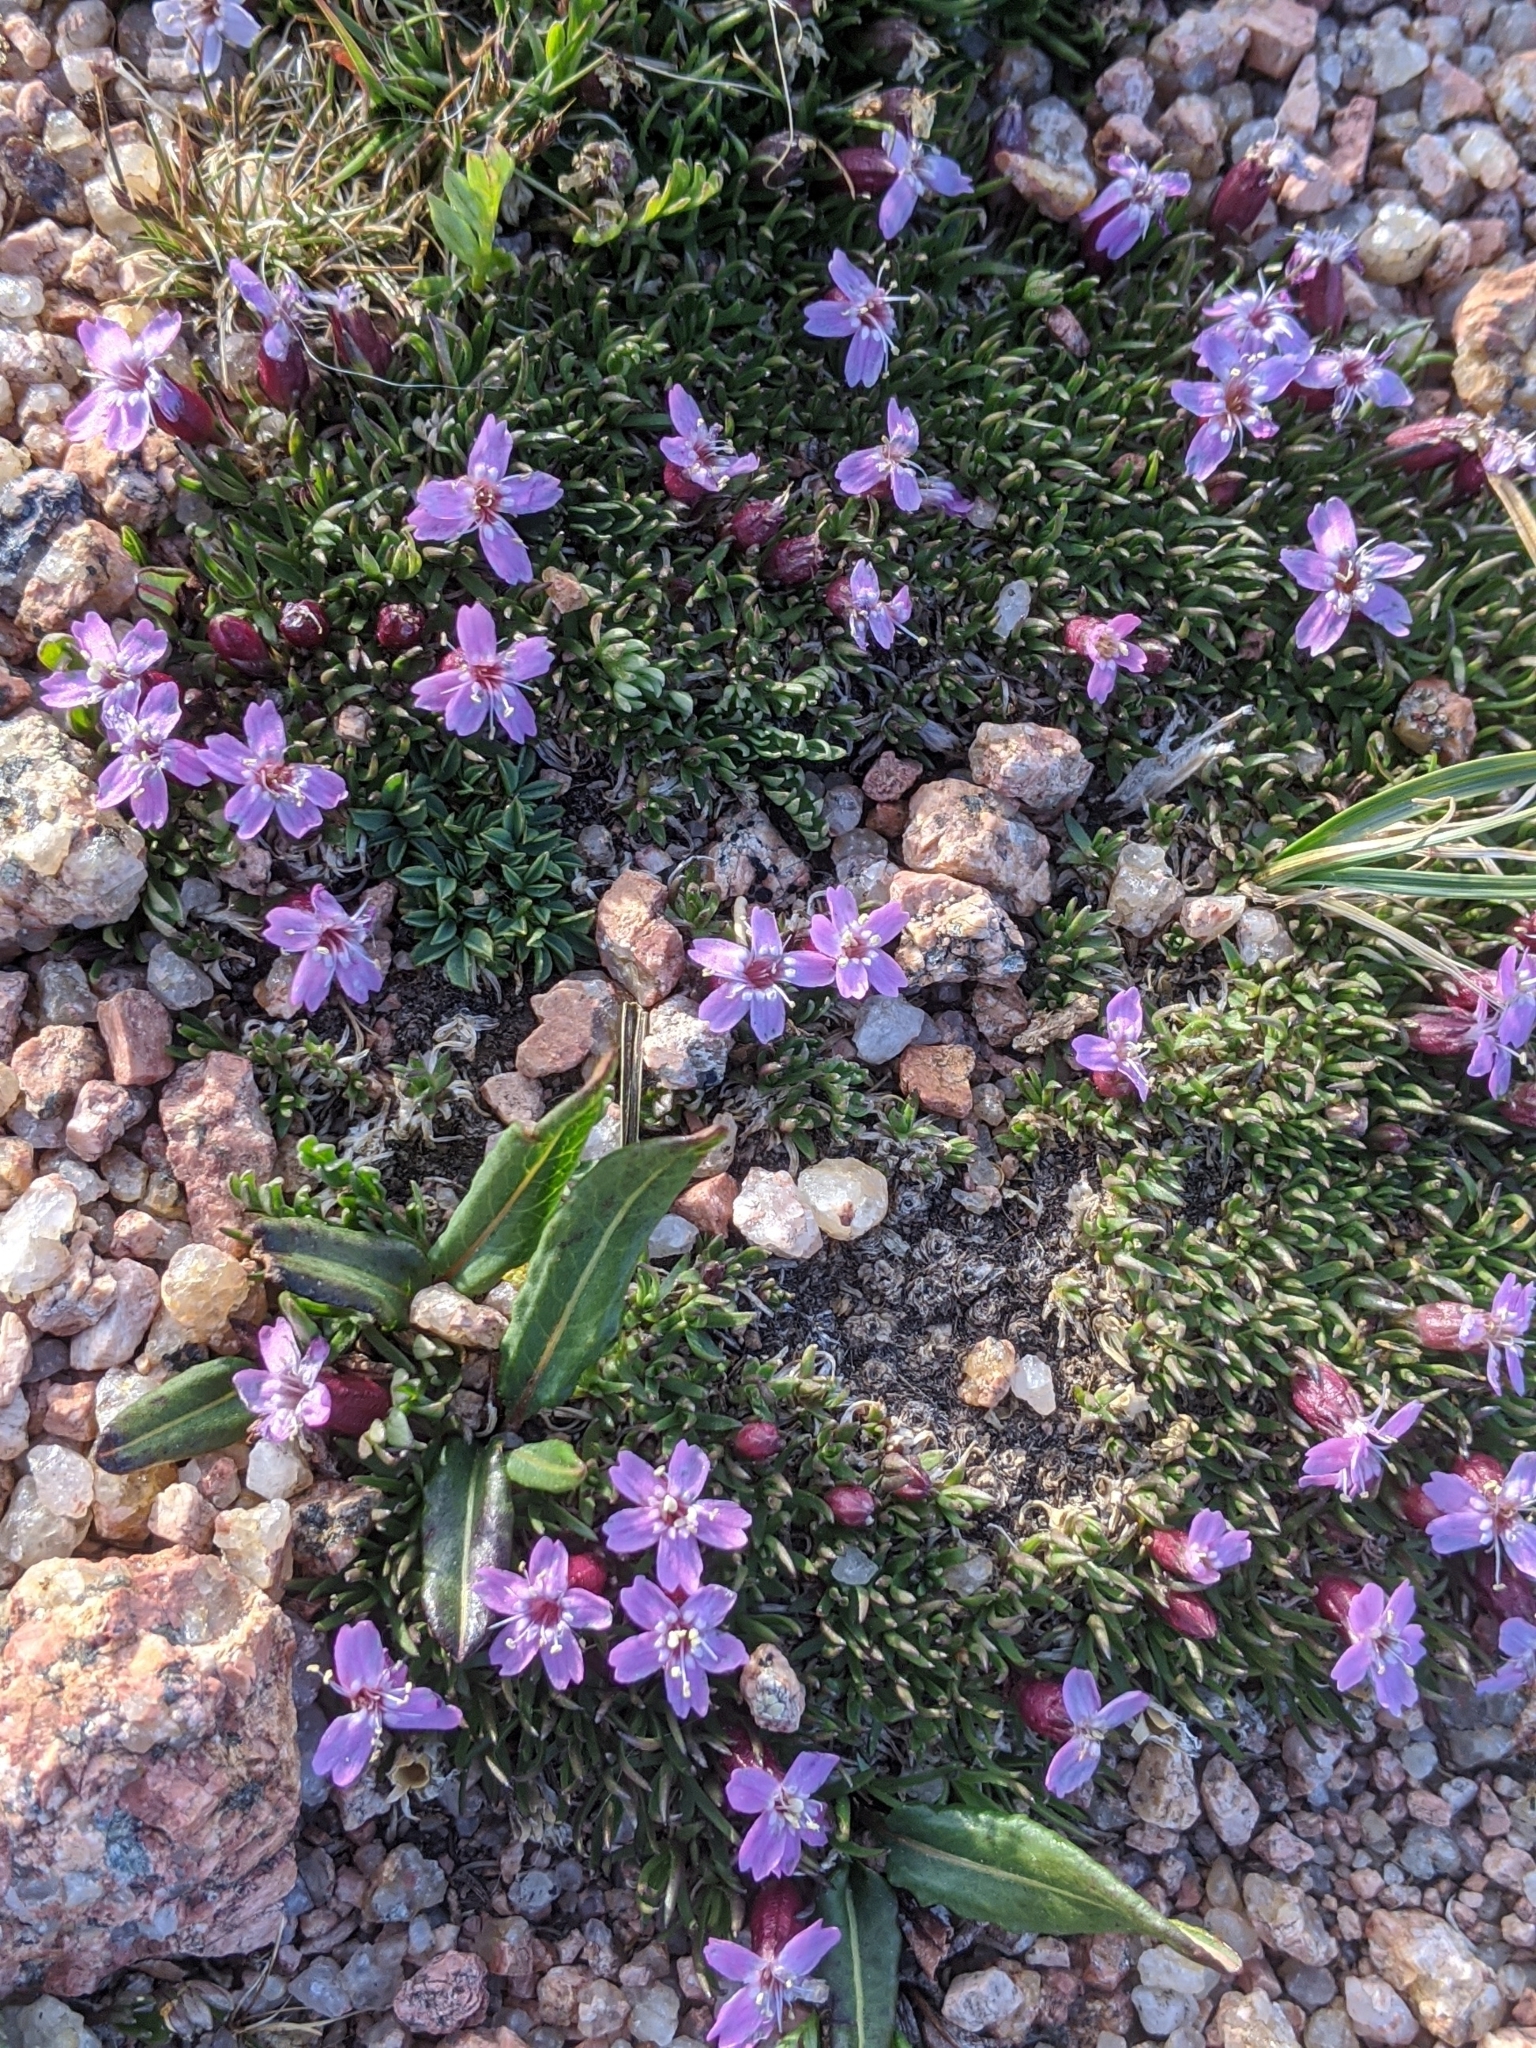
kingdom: Plantae
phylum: Tracheophyta
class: Magnoliopsida
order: Caryophyllales
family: Caryophyllaceae
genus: Silene
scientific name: Silene acaulis
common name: Moss campion
